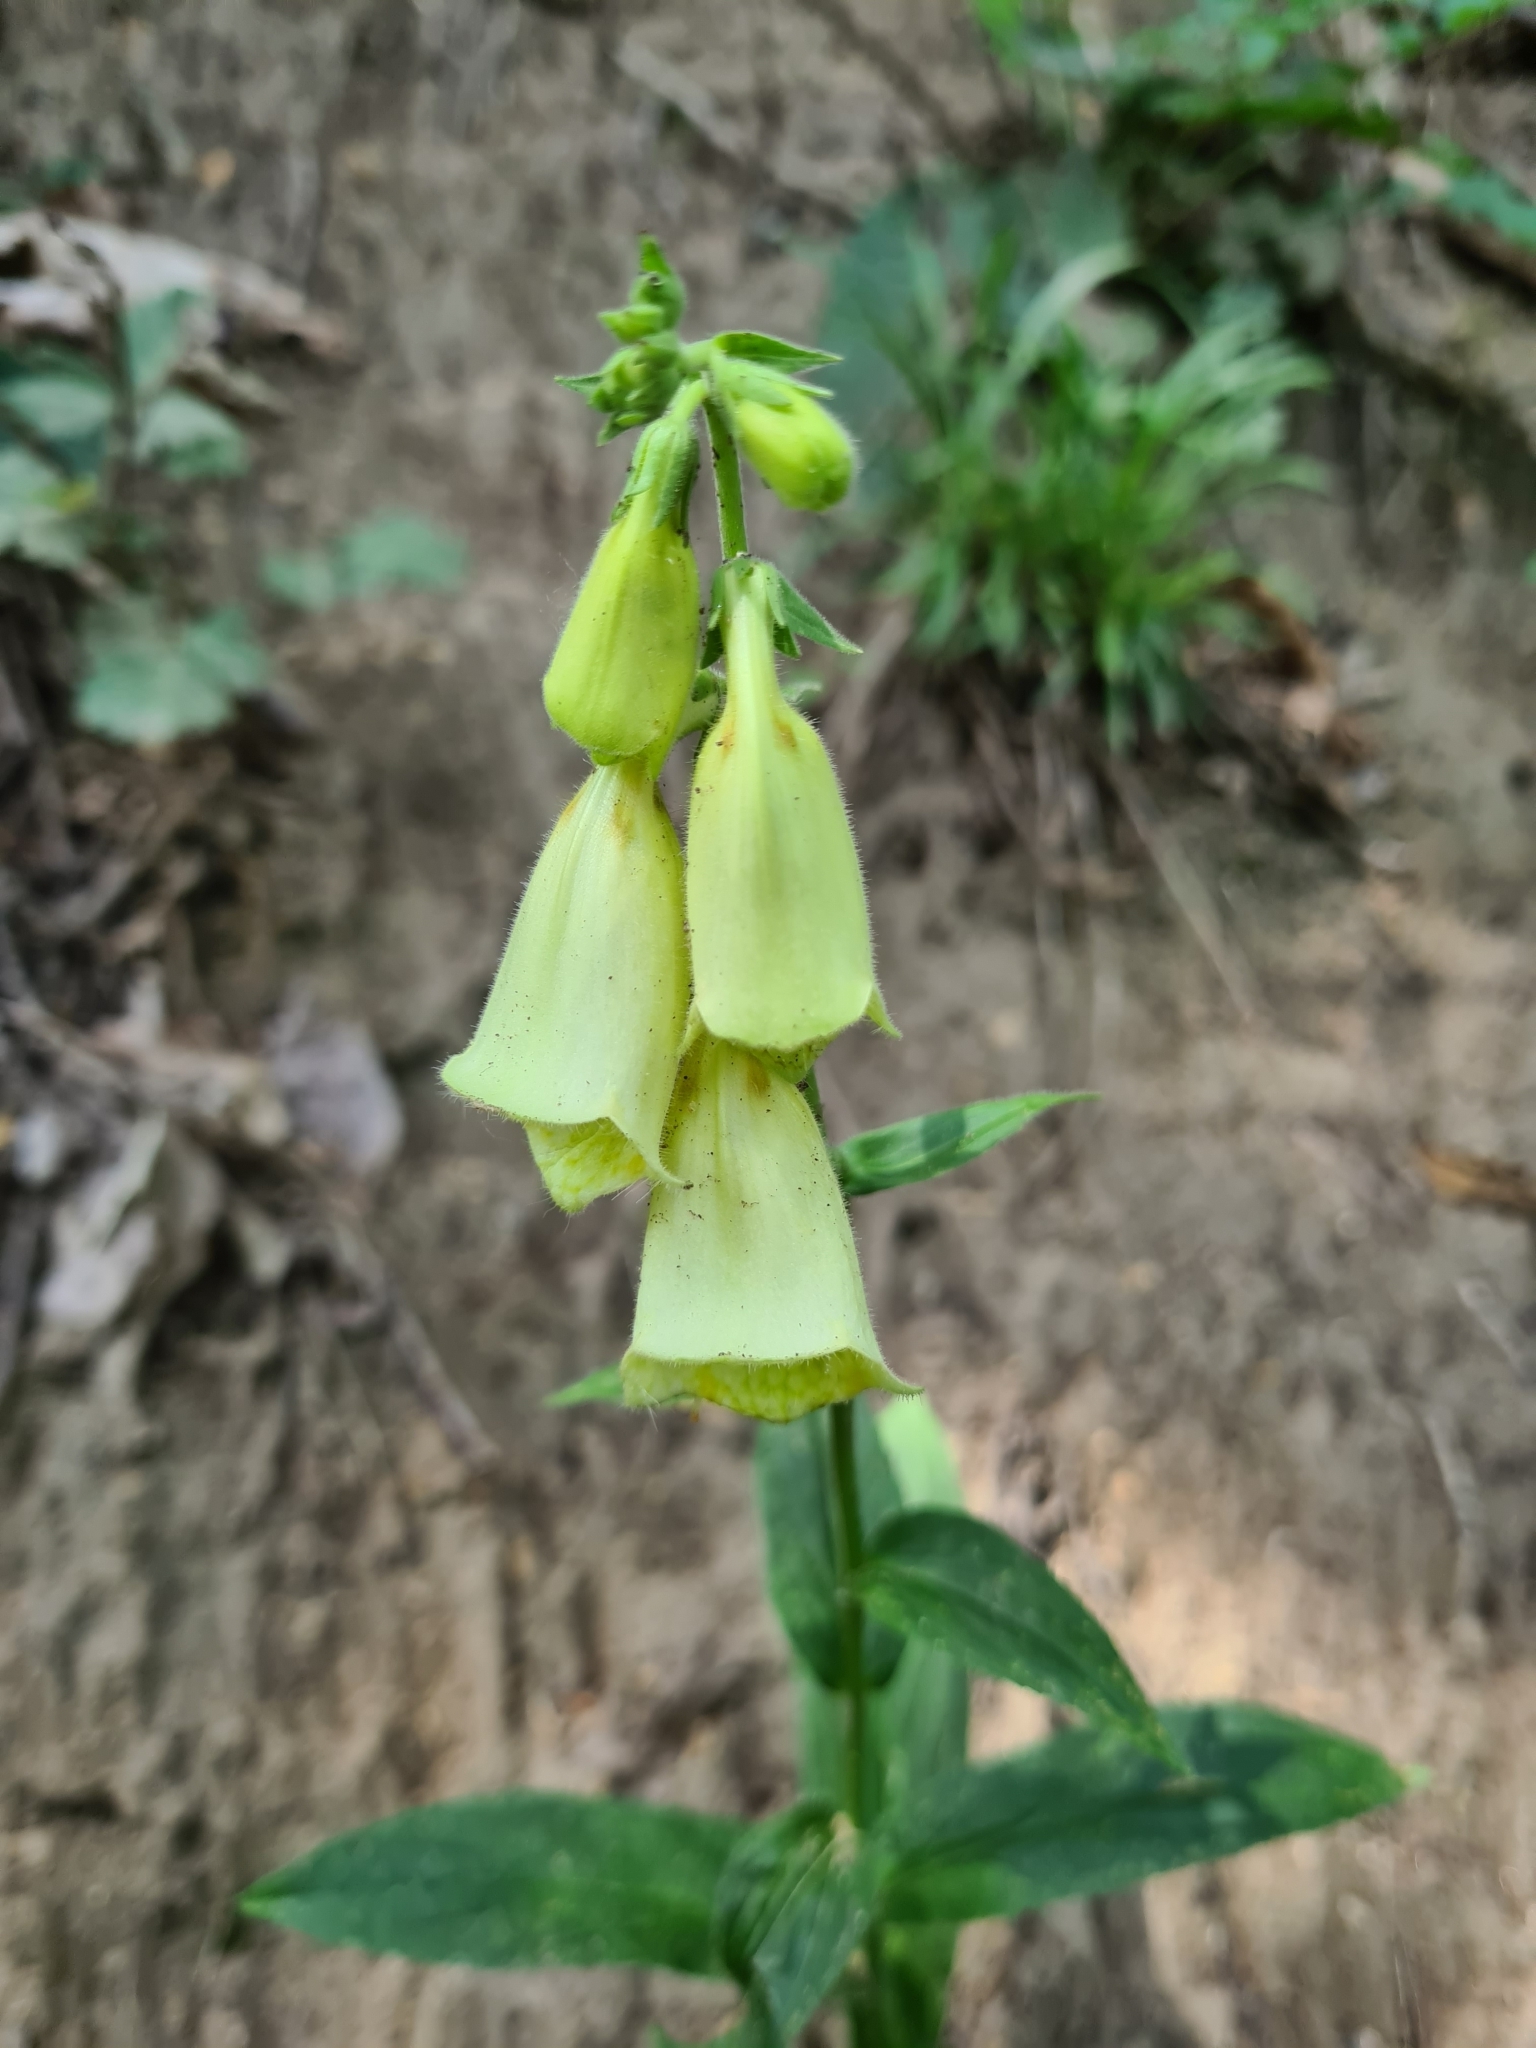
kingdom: Plantae
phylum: Tracheophyta
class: Magnoliopsida
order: Lamiales
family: Plantaginaceae
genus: Digitalis
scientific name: Digitalis grandiflora
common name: Yellow foxglove
